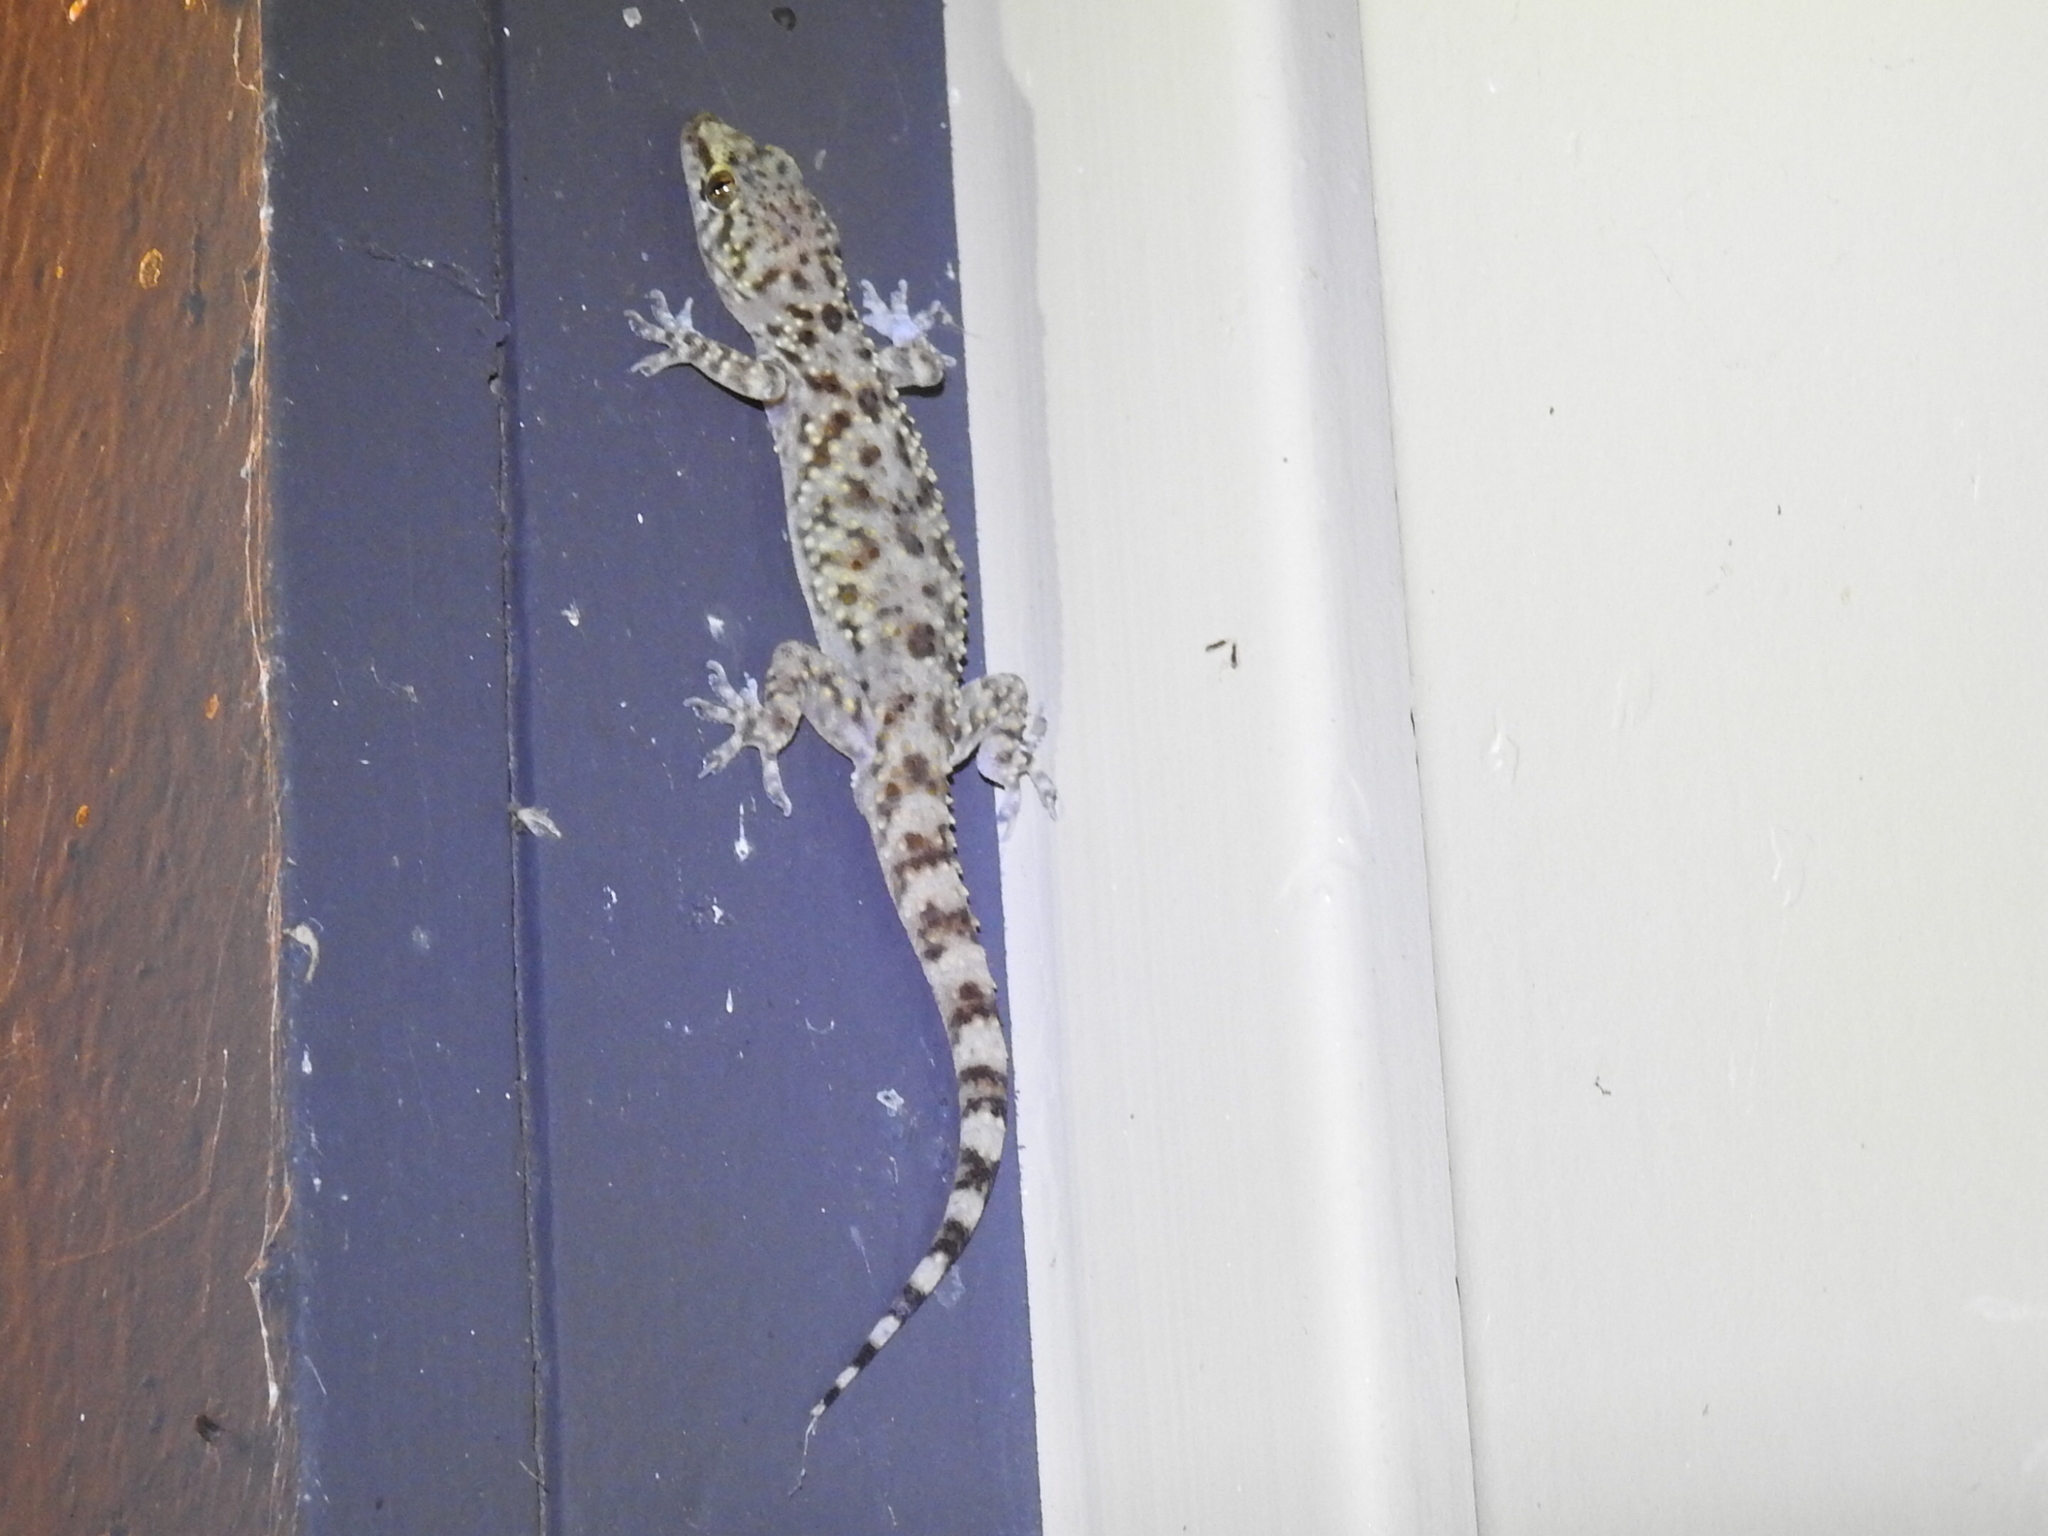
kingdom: Animalia
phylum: Chordata
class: Squamata
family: Gekkonidae
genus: Hemidactylus
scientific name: Hemidactylus turcicus
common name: Turkish gecko
